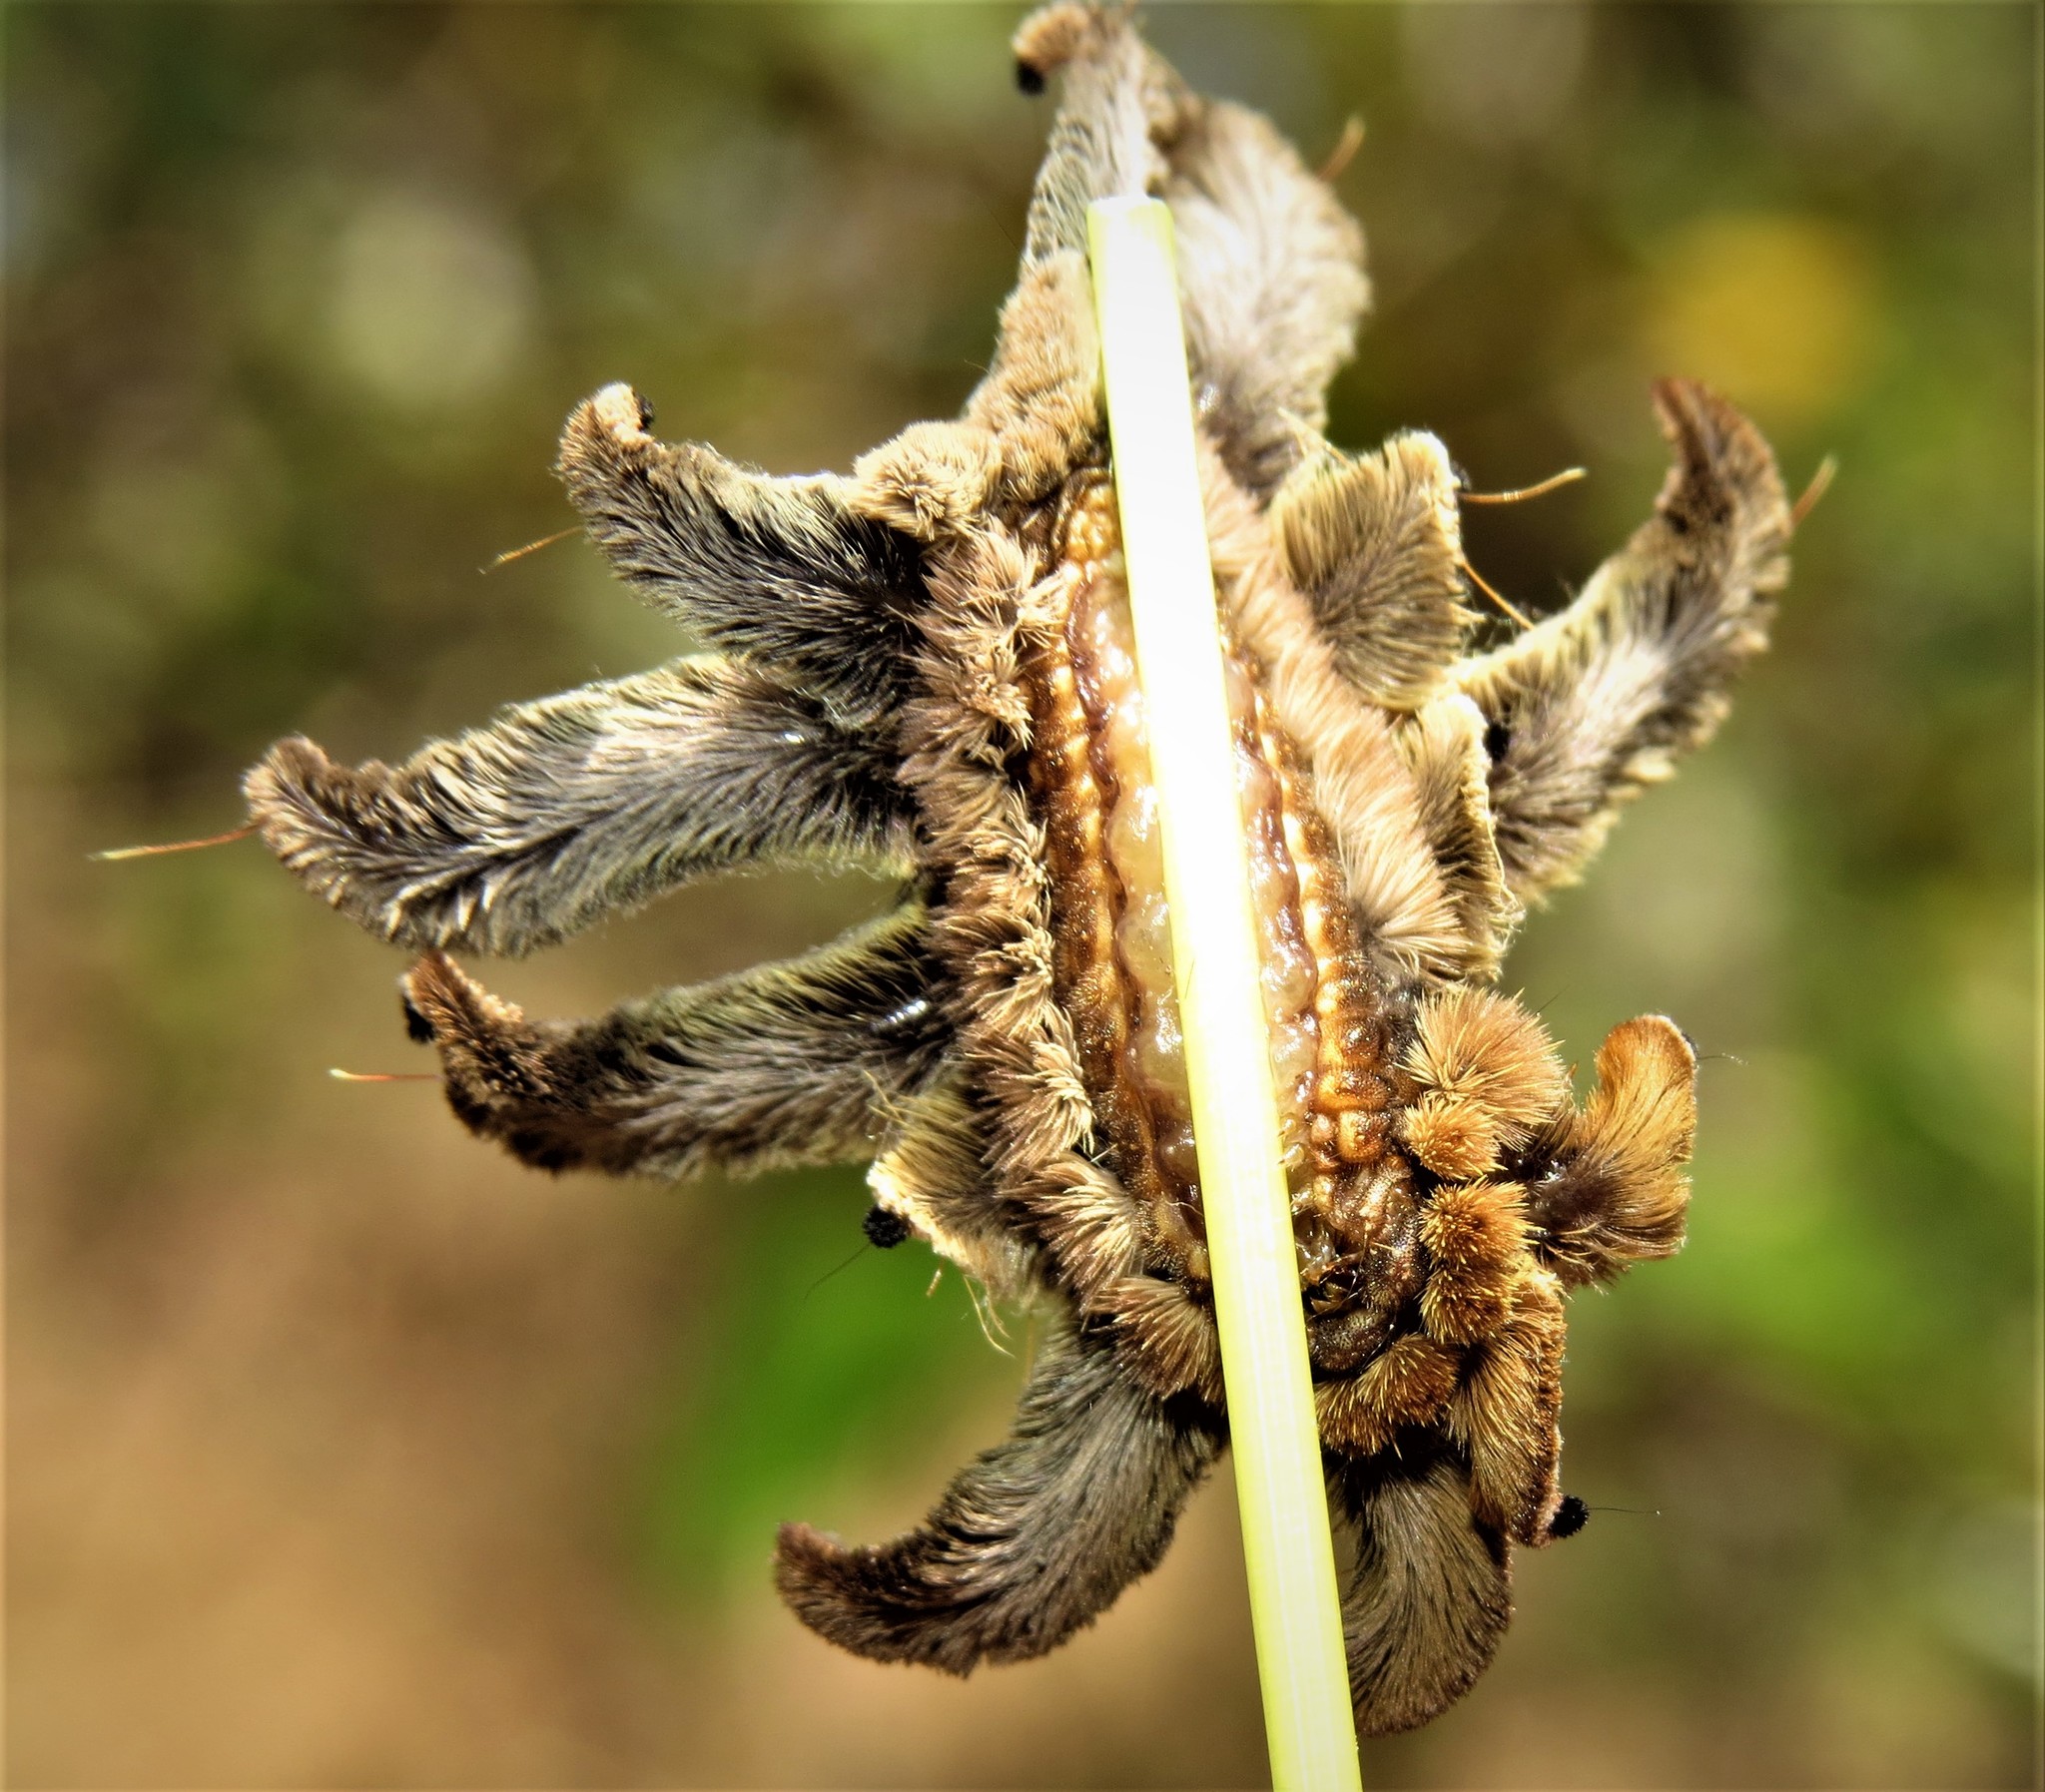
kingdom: Animalia
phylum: Arthropoda
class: Insecta
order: Lepidoptera
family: Limacodidae
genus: Phobetron
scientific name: Phobetron hipparchia
